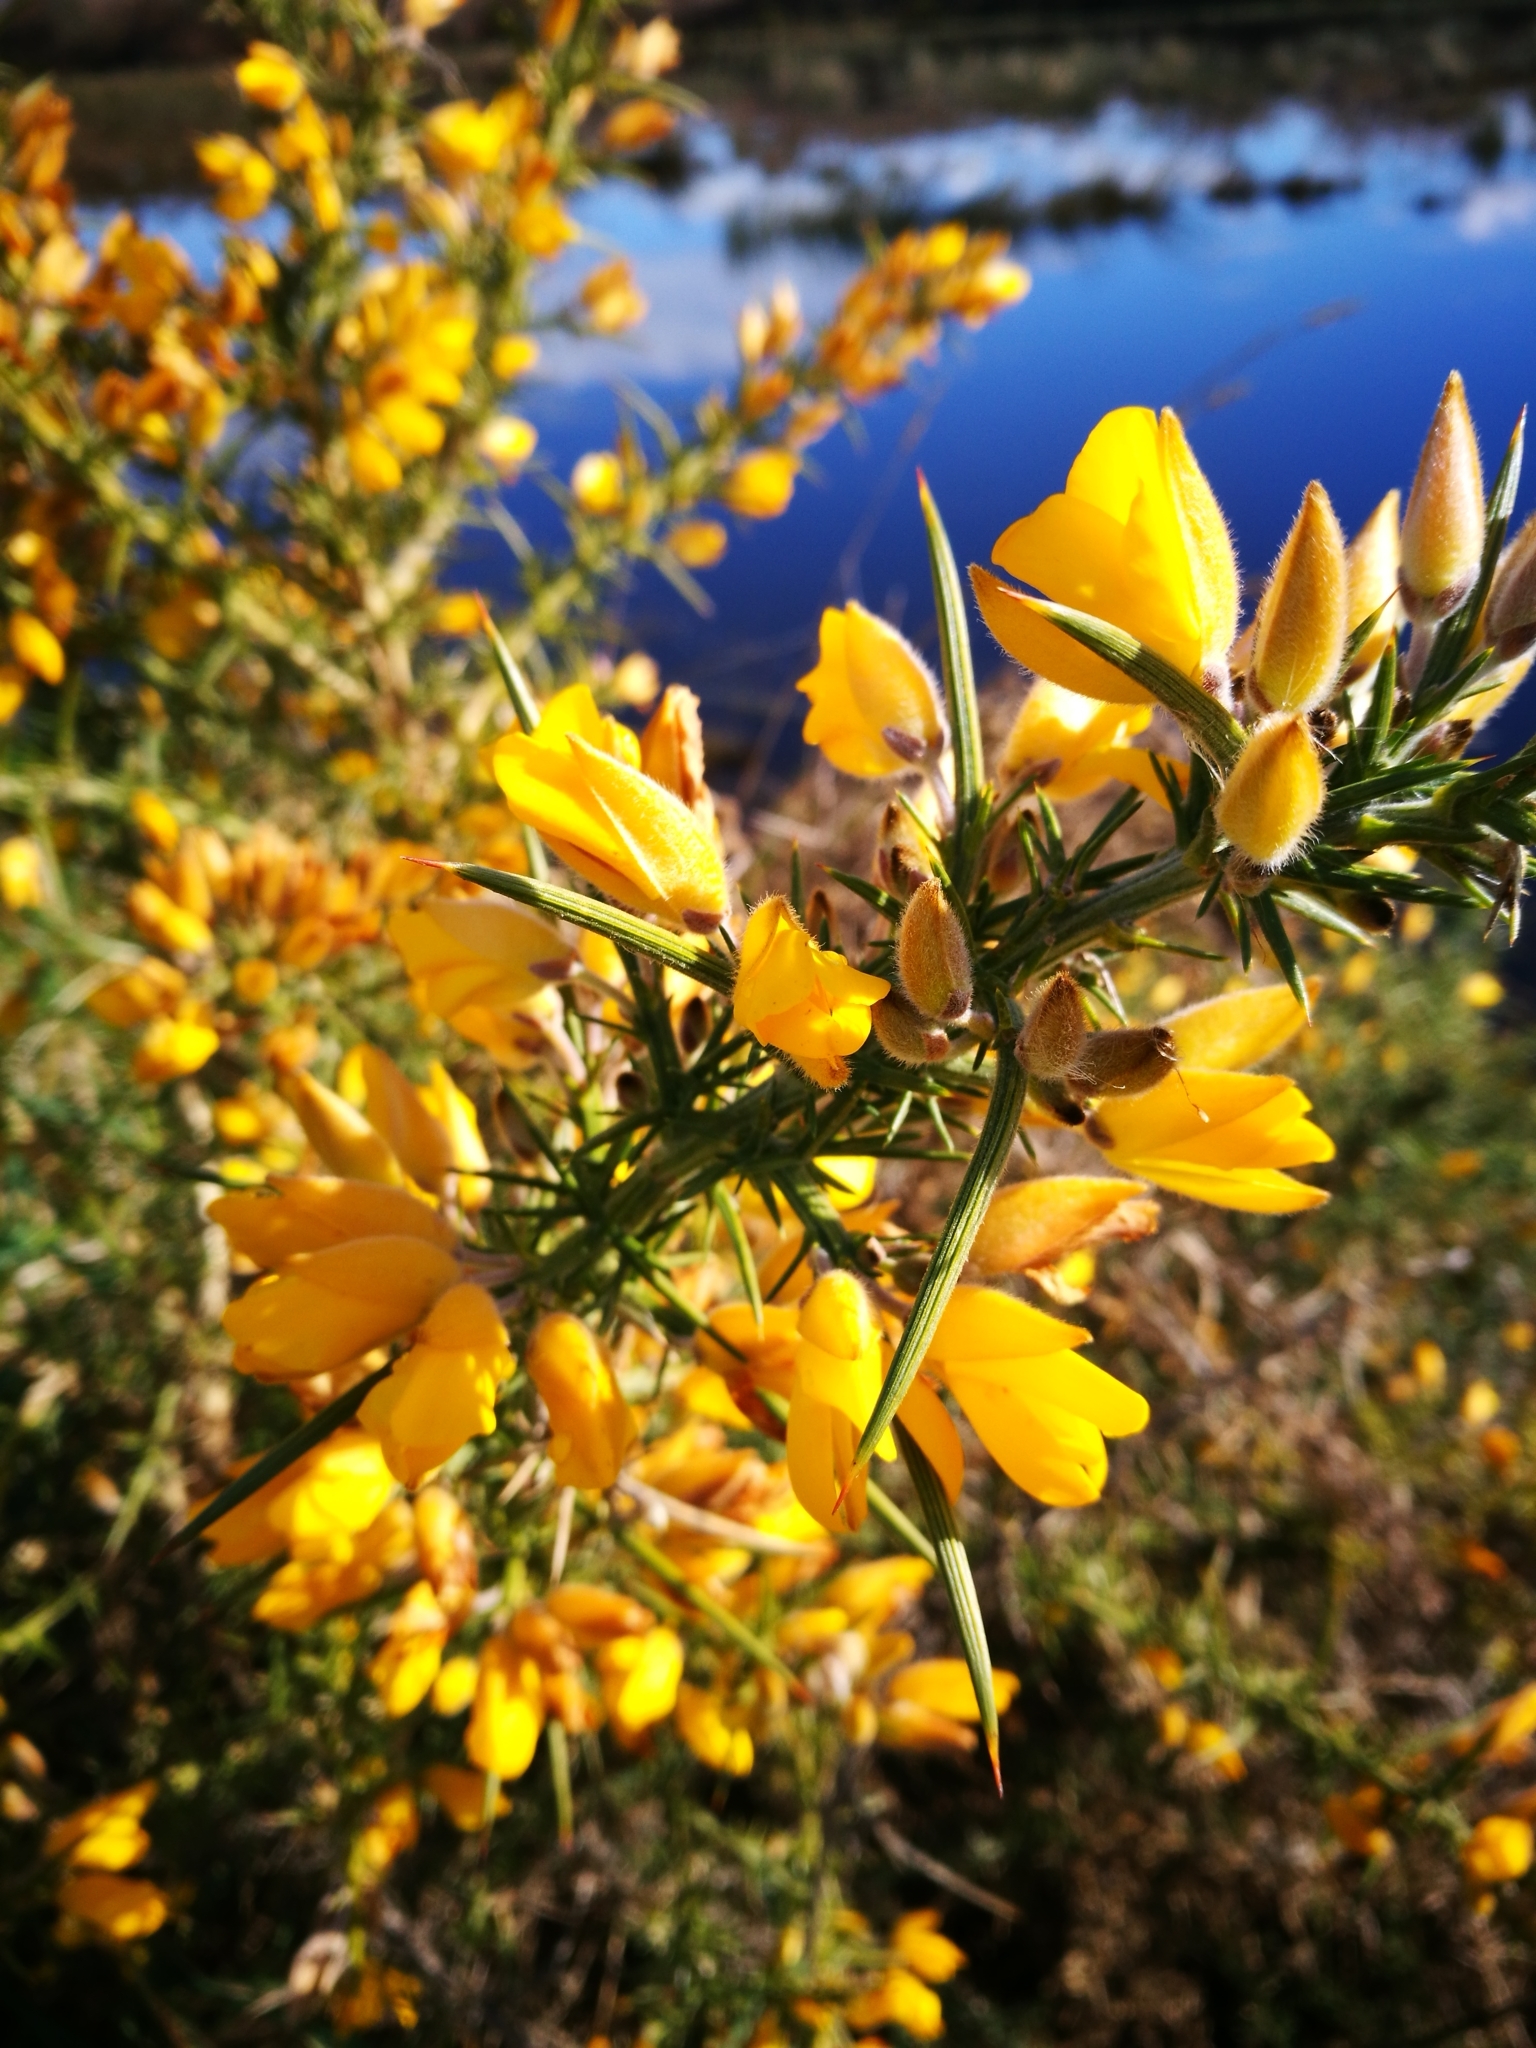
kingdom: Plantae
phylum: Tracheophyta
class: Magnoliopsida
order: Fabales
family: Fabaceae
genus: Ulex
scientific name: Ulex europaeus
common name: Common gorse
